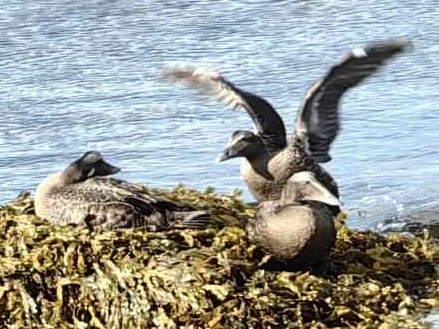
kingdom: Animalia
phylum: Chordata
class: Aves
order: Anseriformes
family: Anatidae
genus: Somateria
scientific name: Somateria mollissima
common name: Common eider
